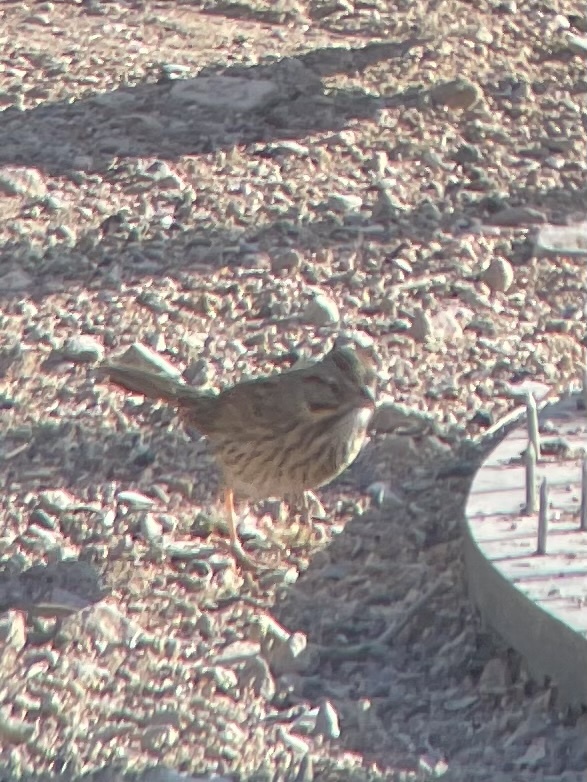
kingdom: Animalia
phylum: Chordata
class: Aves
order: Passeriformes
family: Passerellidae
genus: Melospiza
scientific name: Melospiza lincolnii
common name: Lincoln's sparrow
